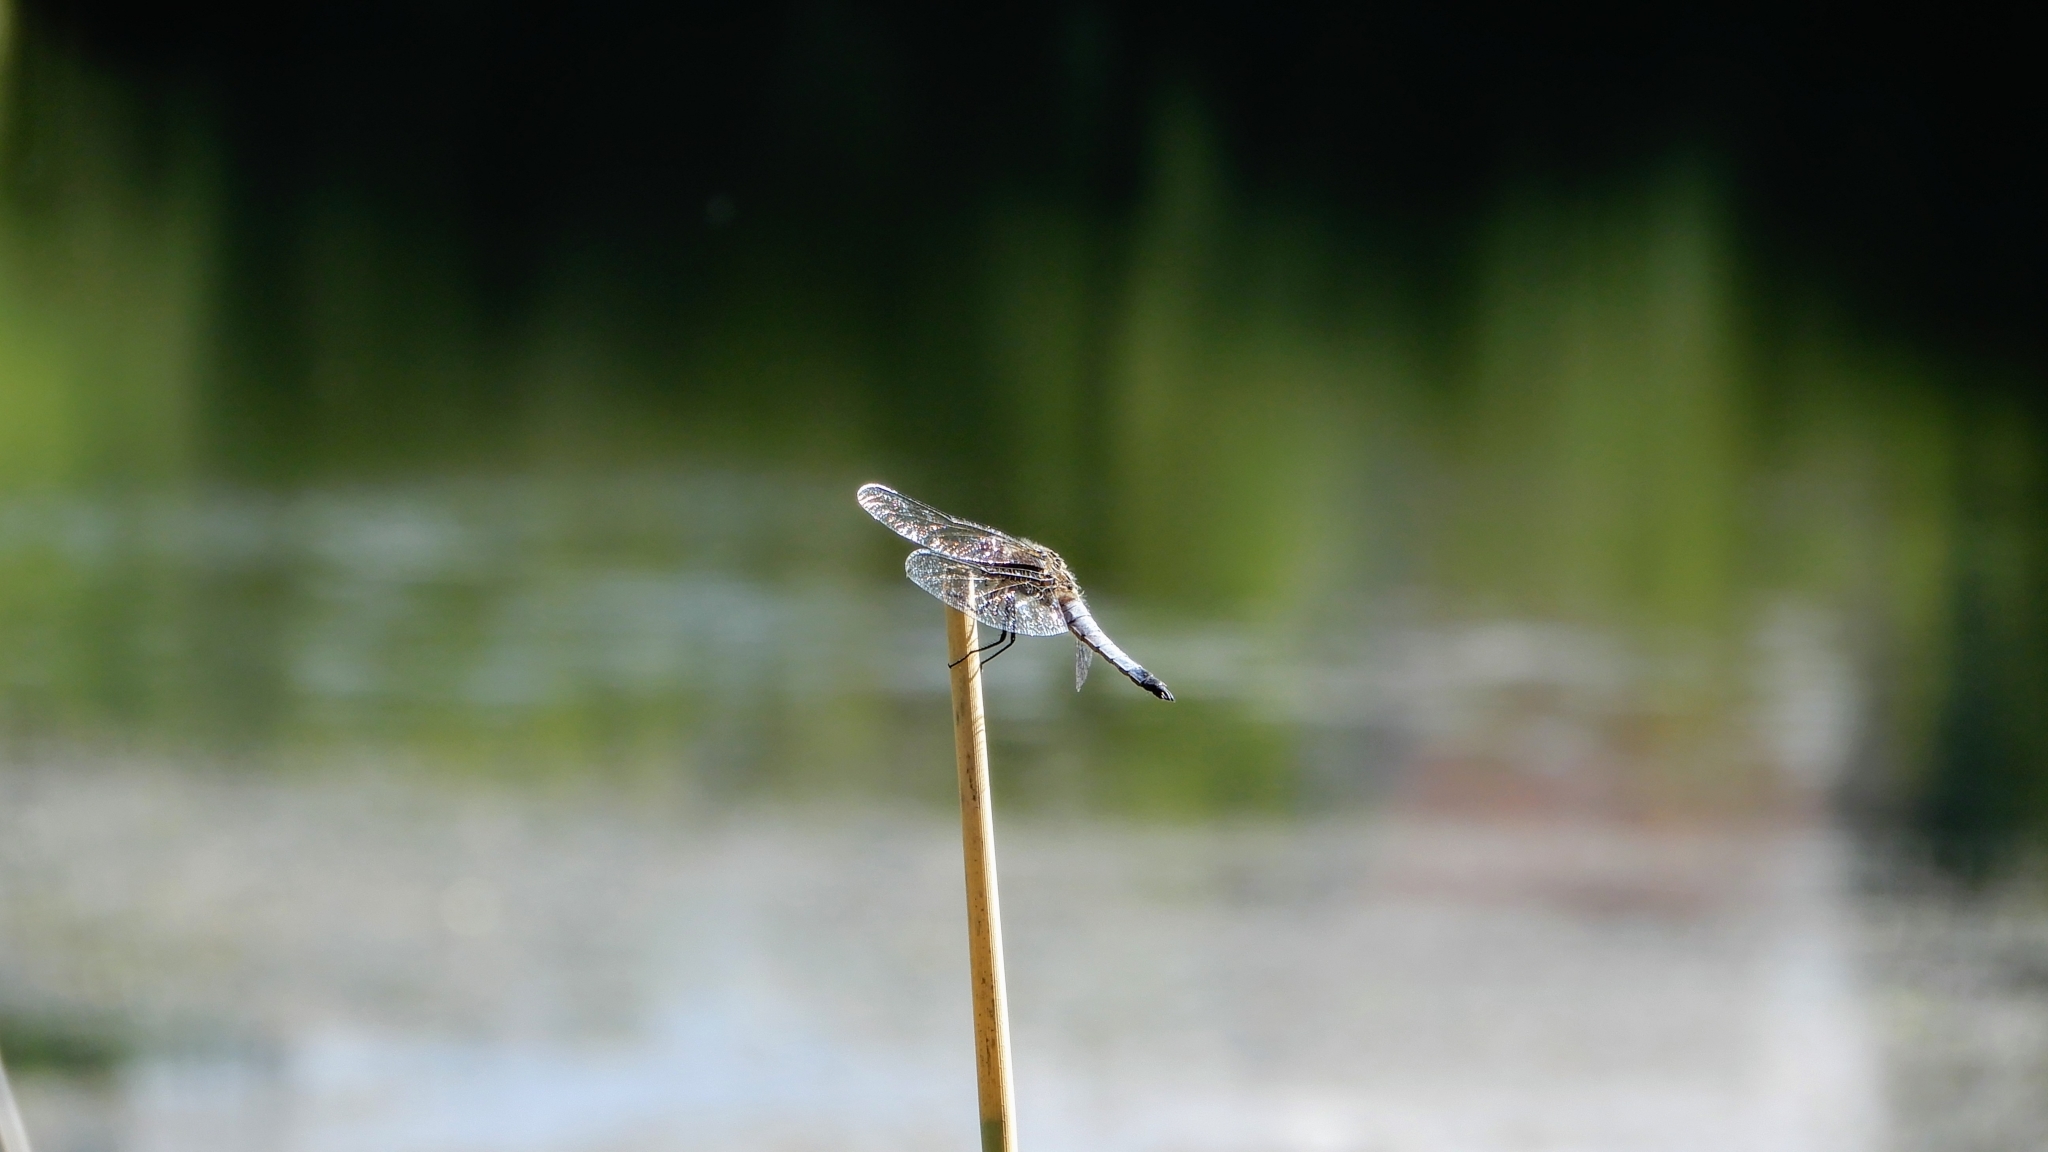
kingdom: Animalia
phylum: Arthropoda
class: Insecta
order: Odonata
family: Libellulidae
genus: Libellula
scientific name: Libellula fulva
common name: Blue chaser
